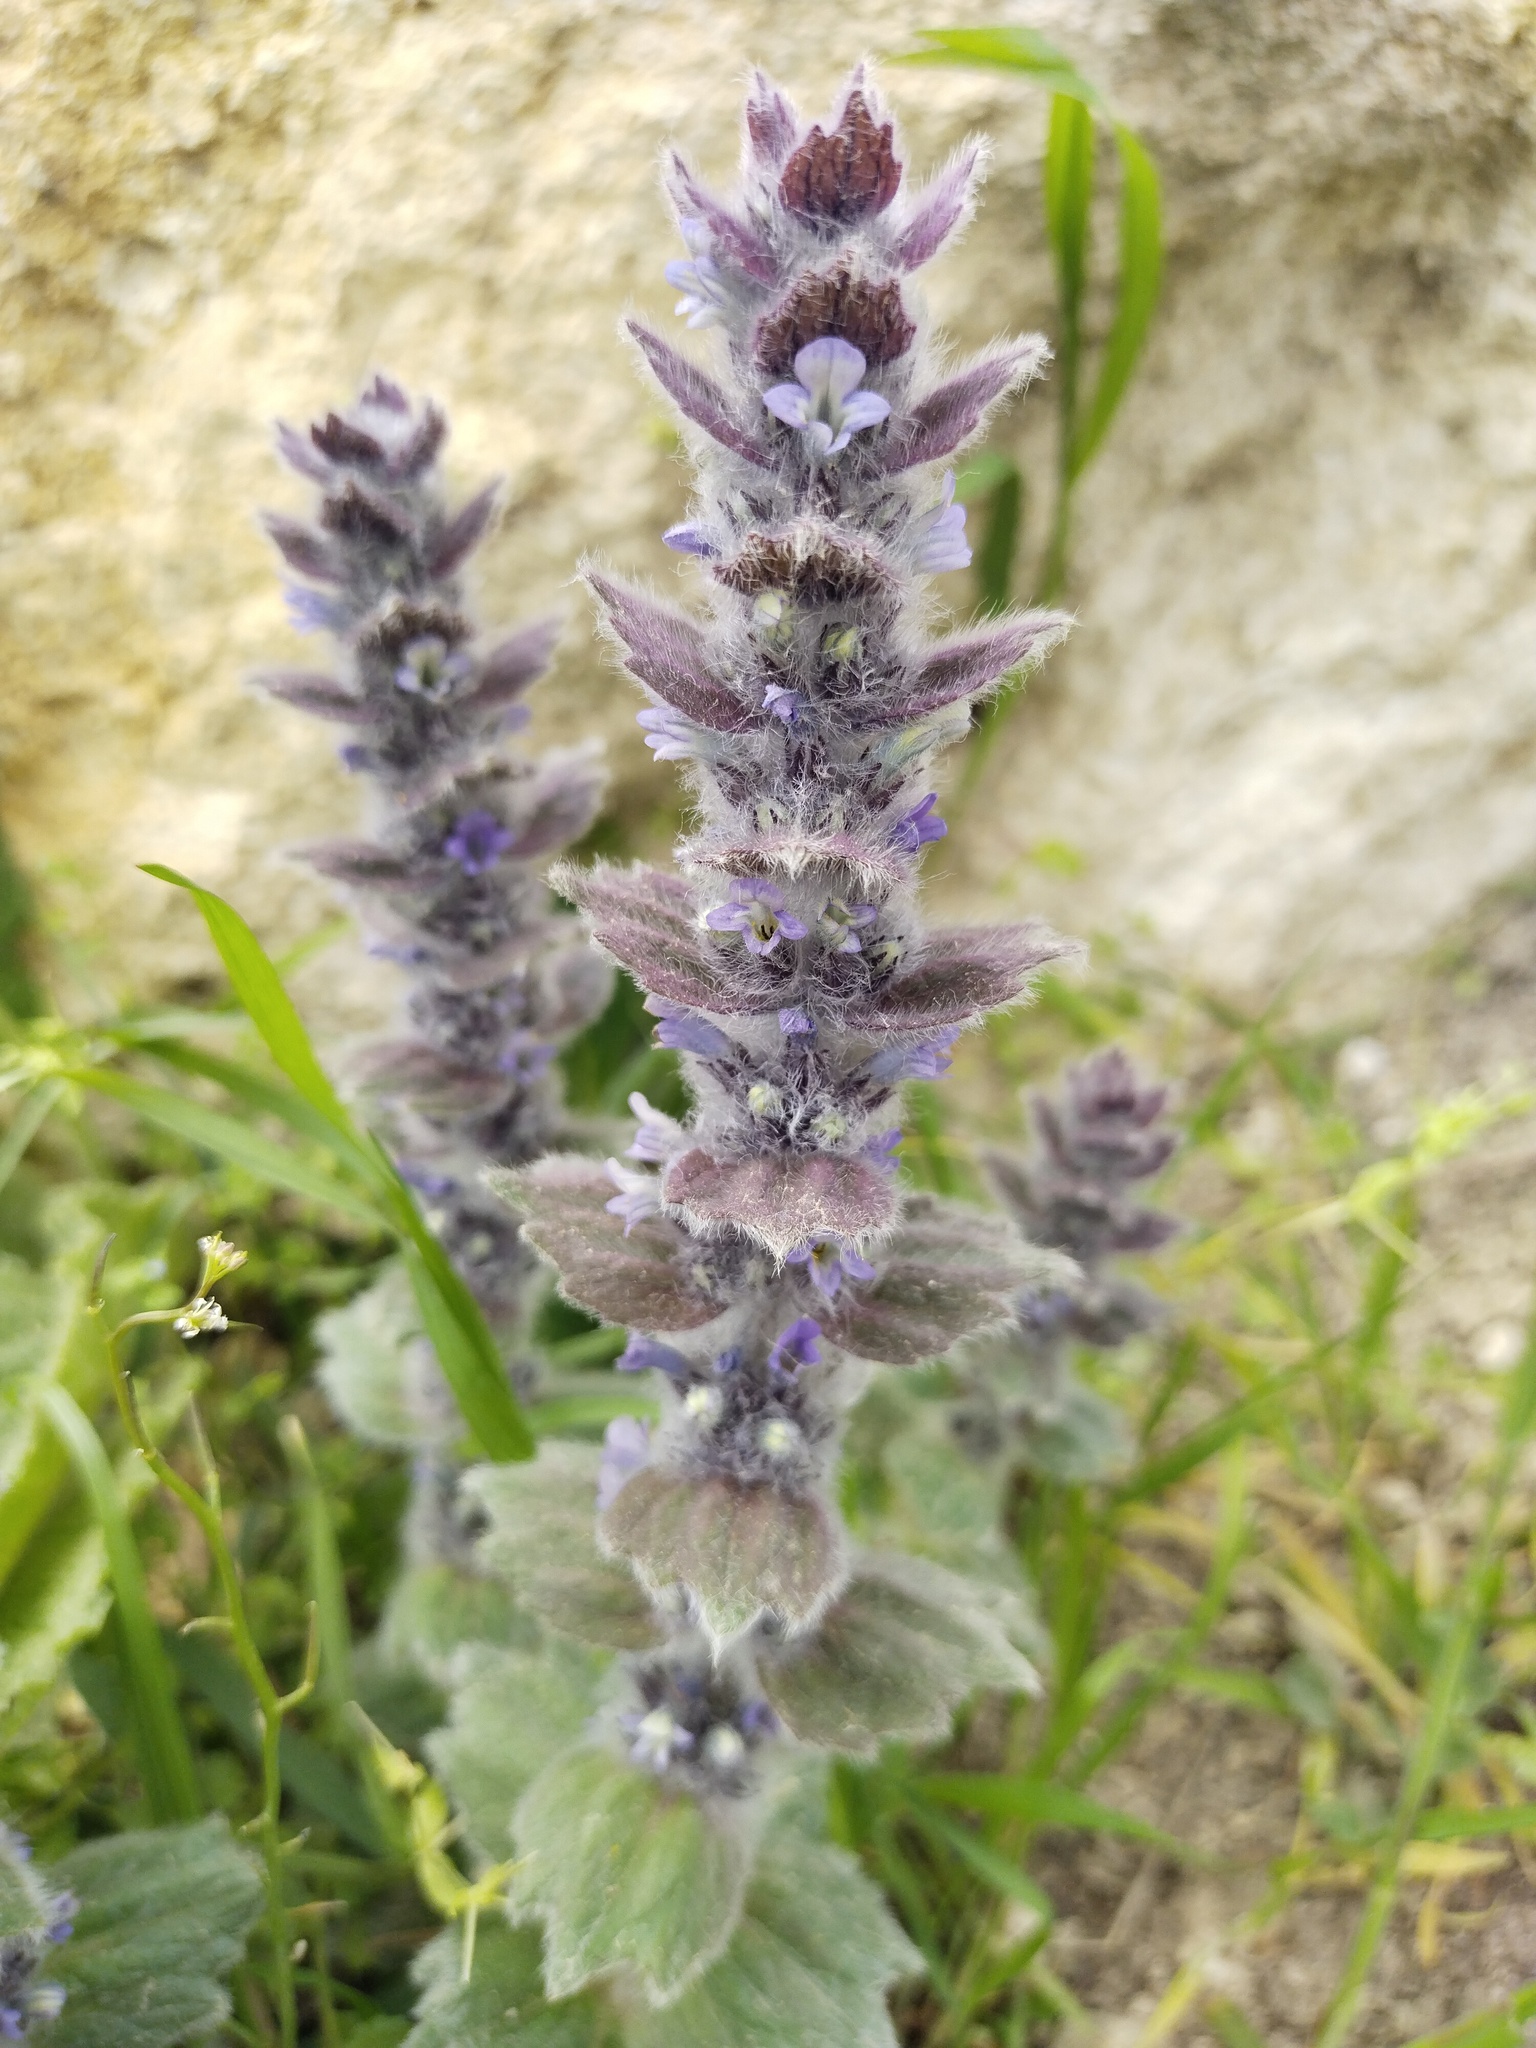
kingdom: Plantae
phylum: Tracheophyta
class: Magnoliopsida
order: Lamiales
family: Lamiaceae
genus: Ajuga
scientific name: Ajuga orientalis
